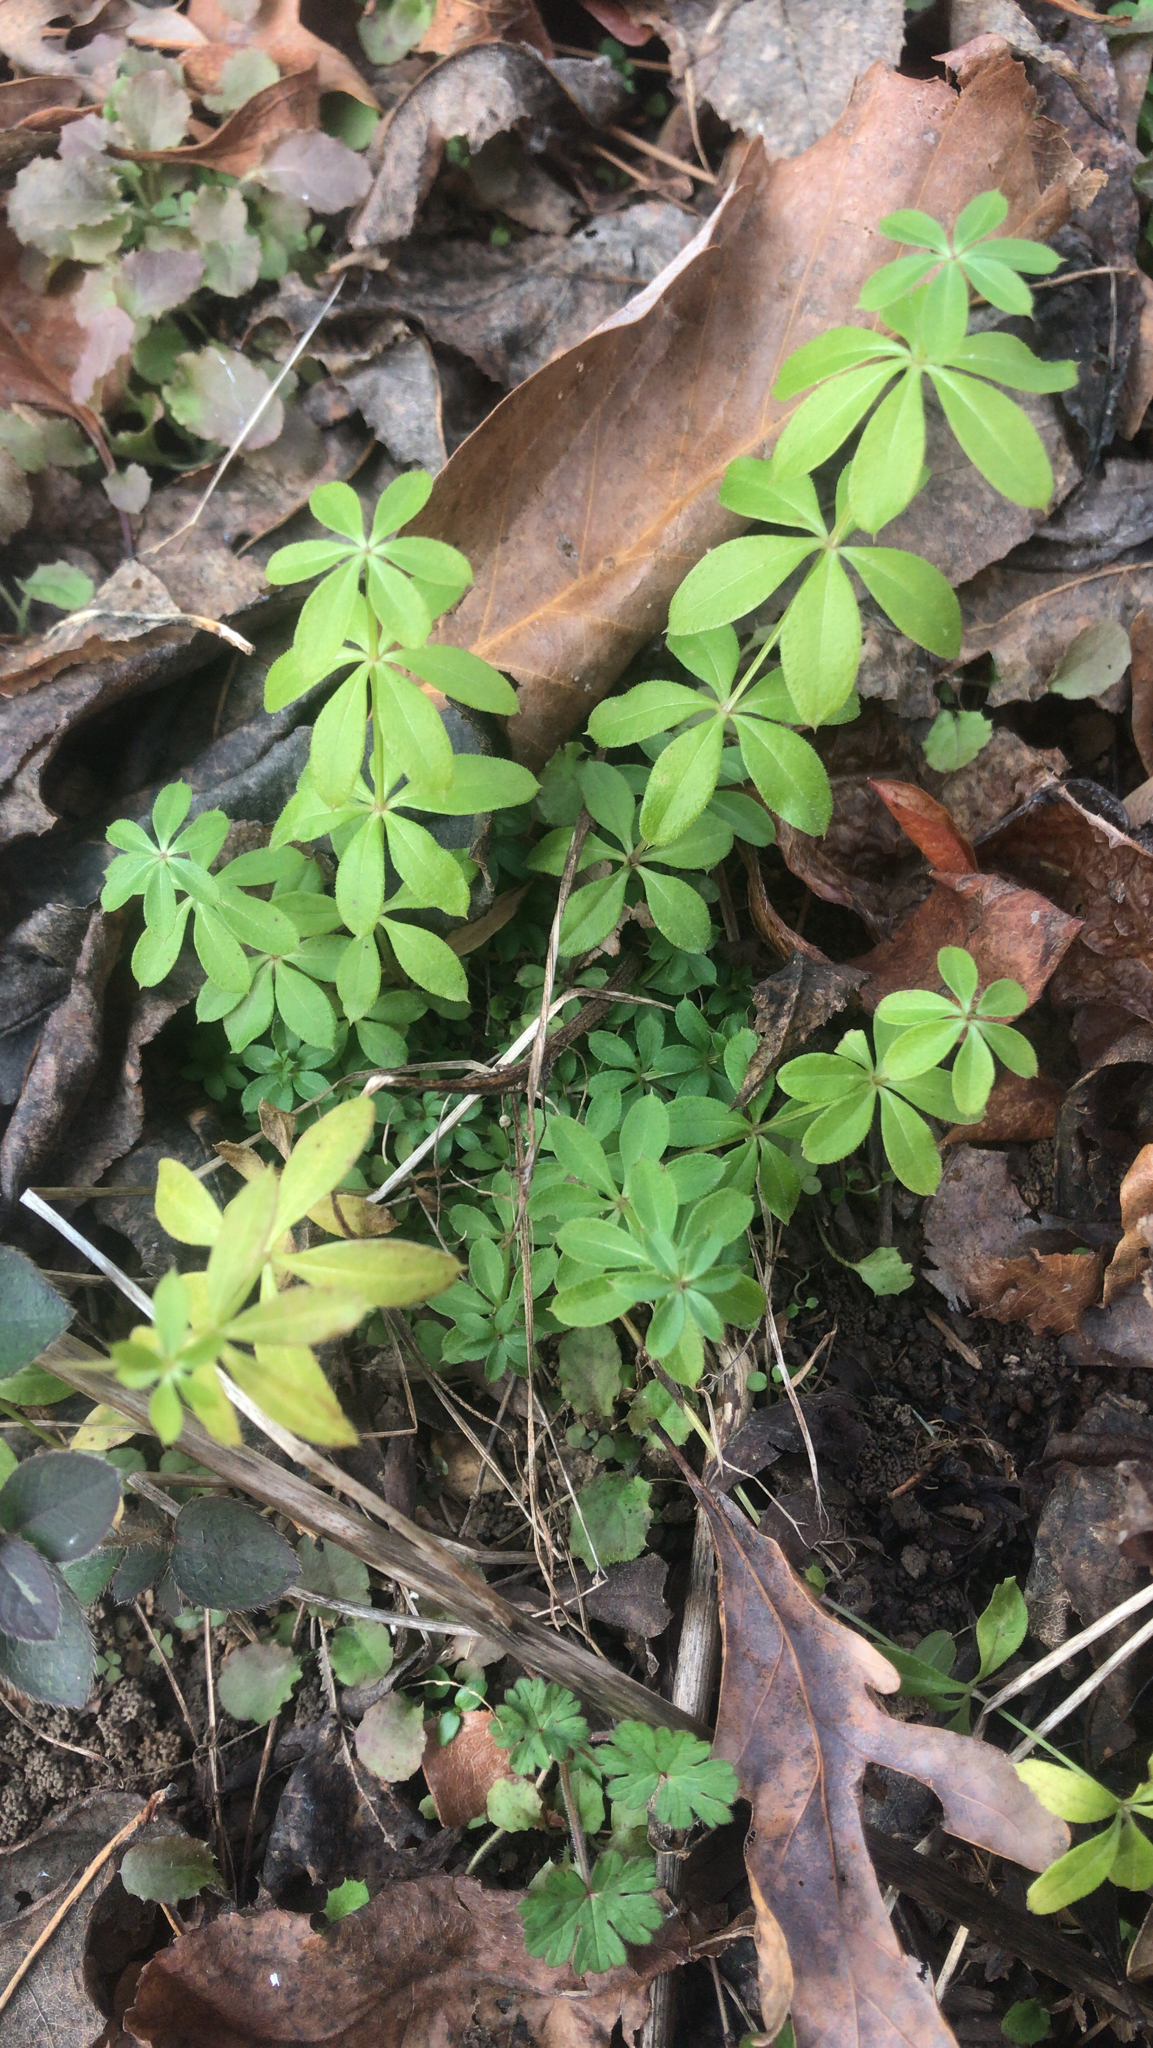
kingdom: Plantae
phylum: Tracheophyta
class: Magnoliopsida
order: Gentianales
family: Rubiaceae
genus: Galium
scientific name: Galium triflorum
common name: Fragrant bedstraw
